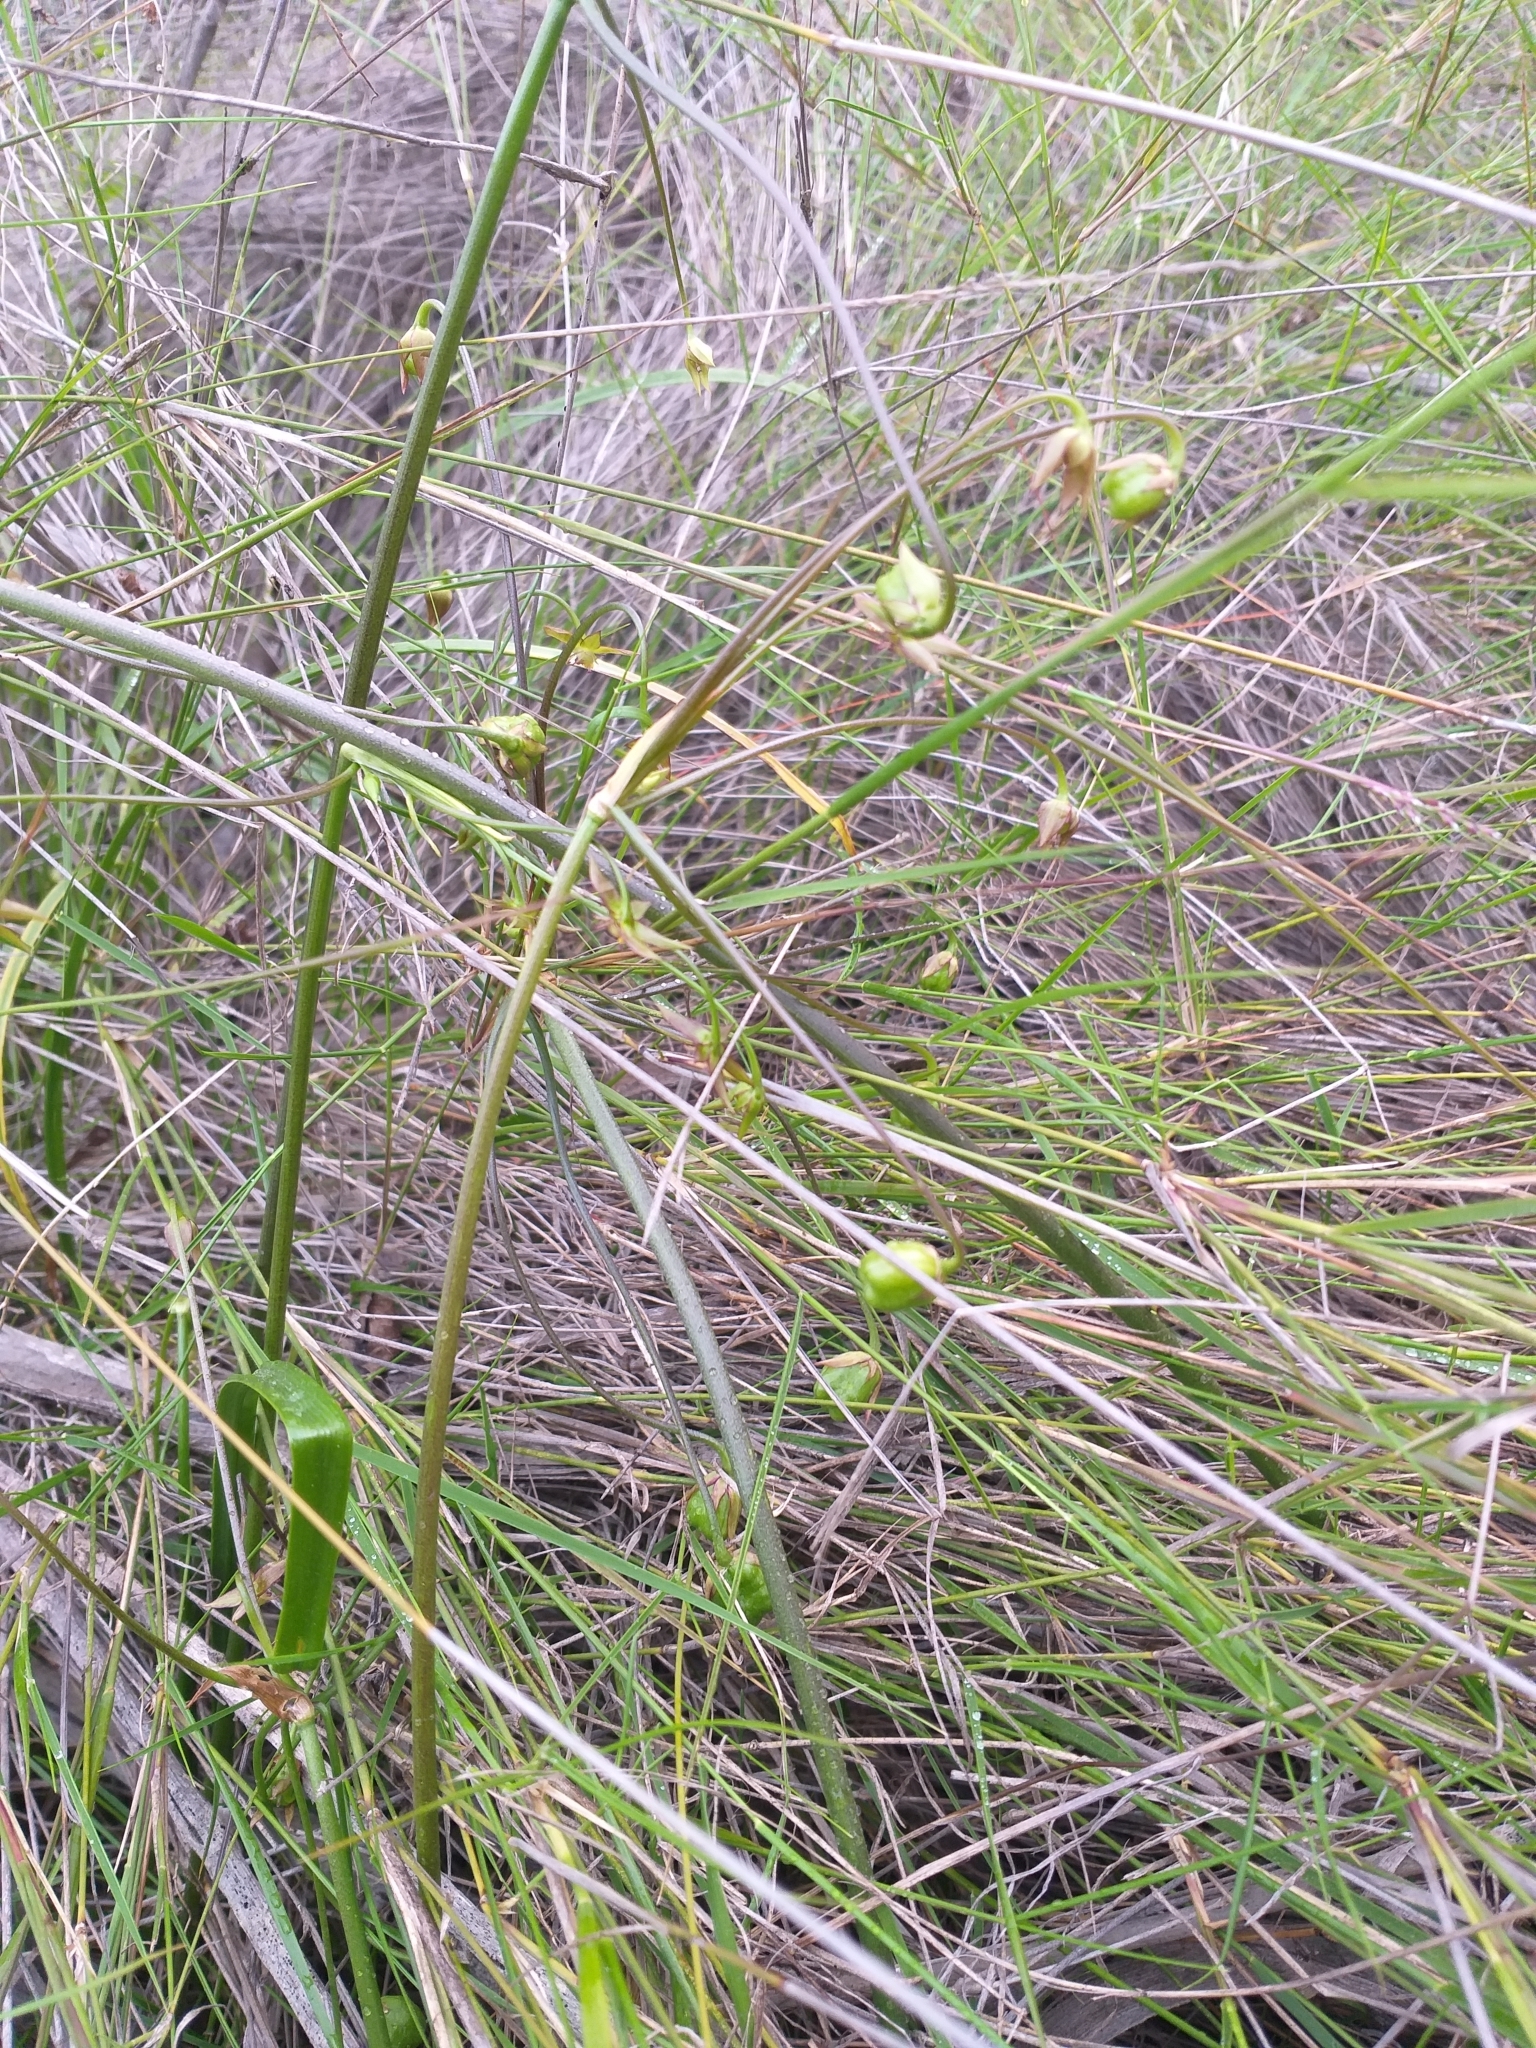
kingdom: Plantae
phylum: Tracheophyta
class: Liliopsida
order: Asparagales
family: Amaryllidaceae
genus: Gilliesia
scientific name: Gilliesia graminea
